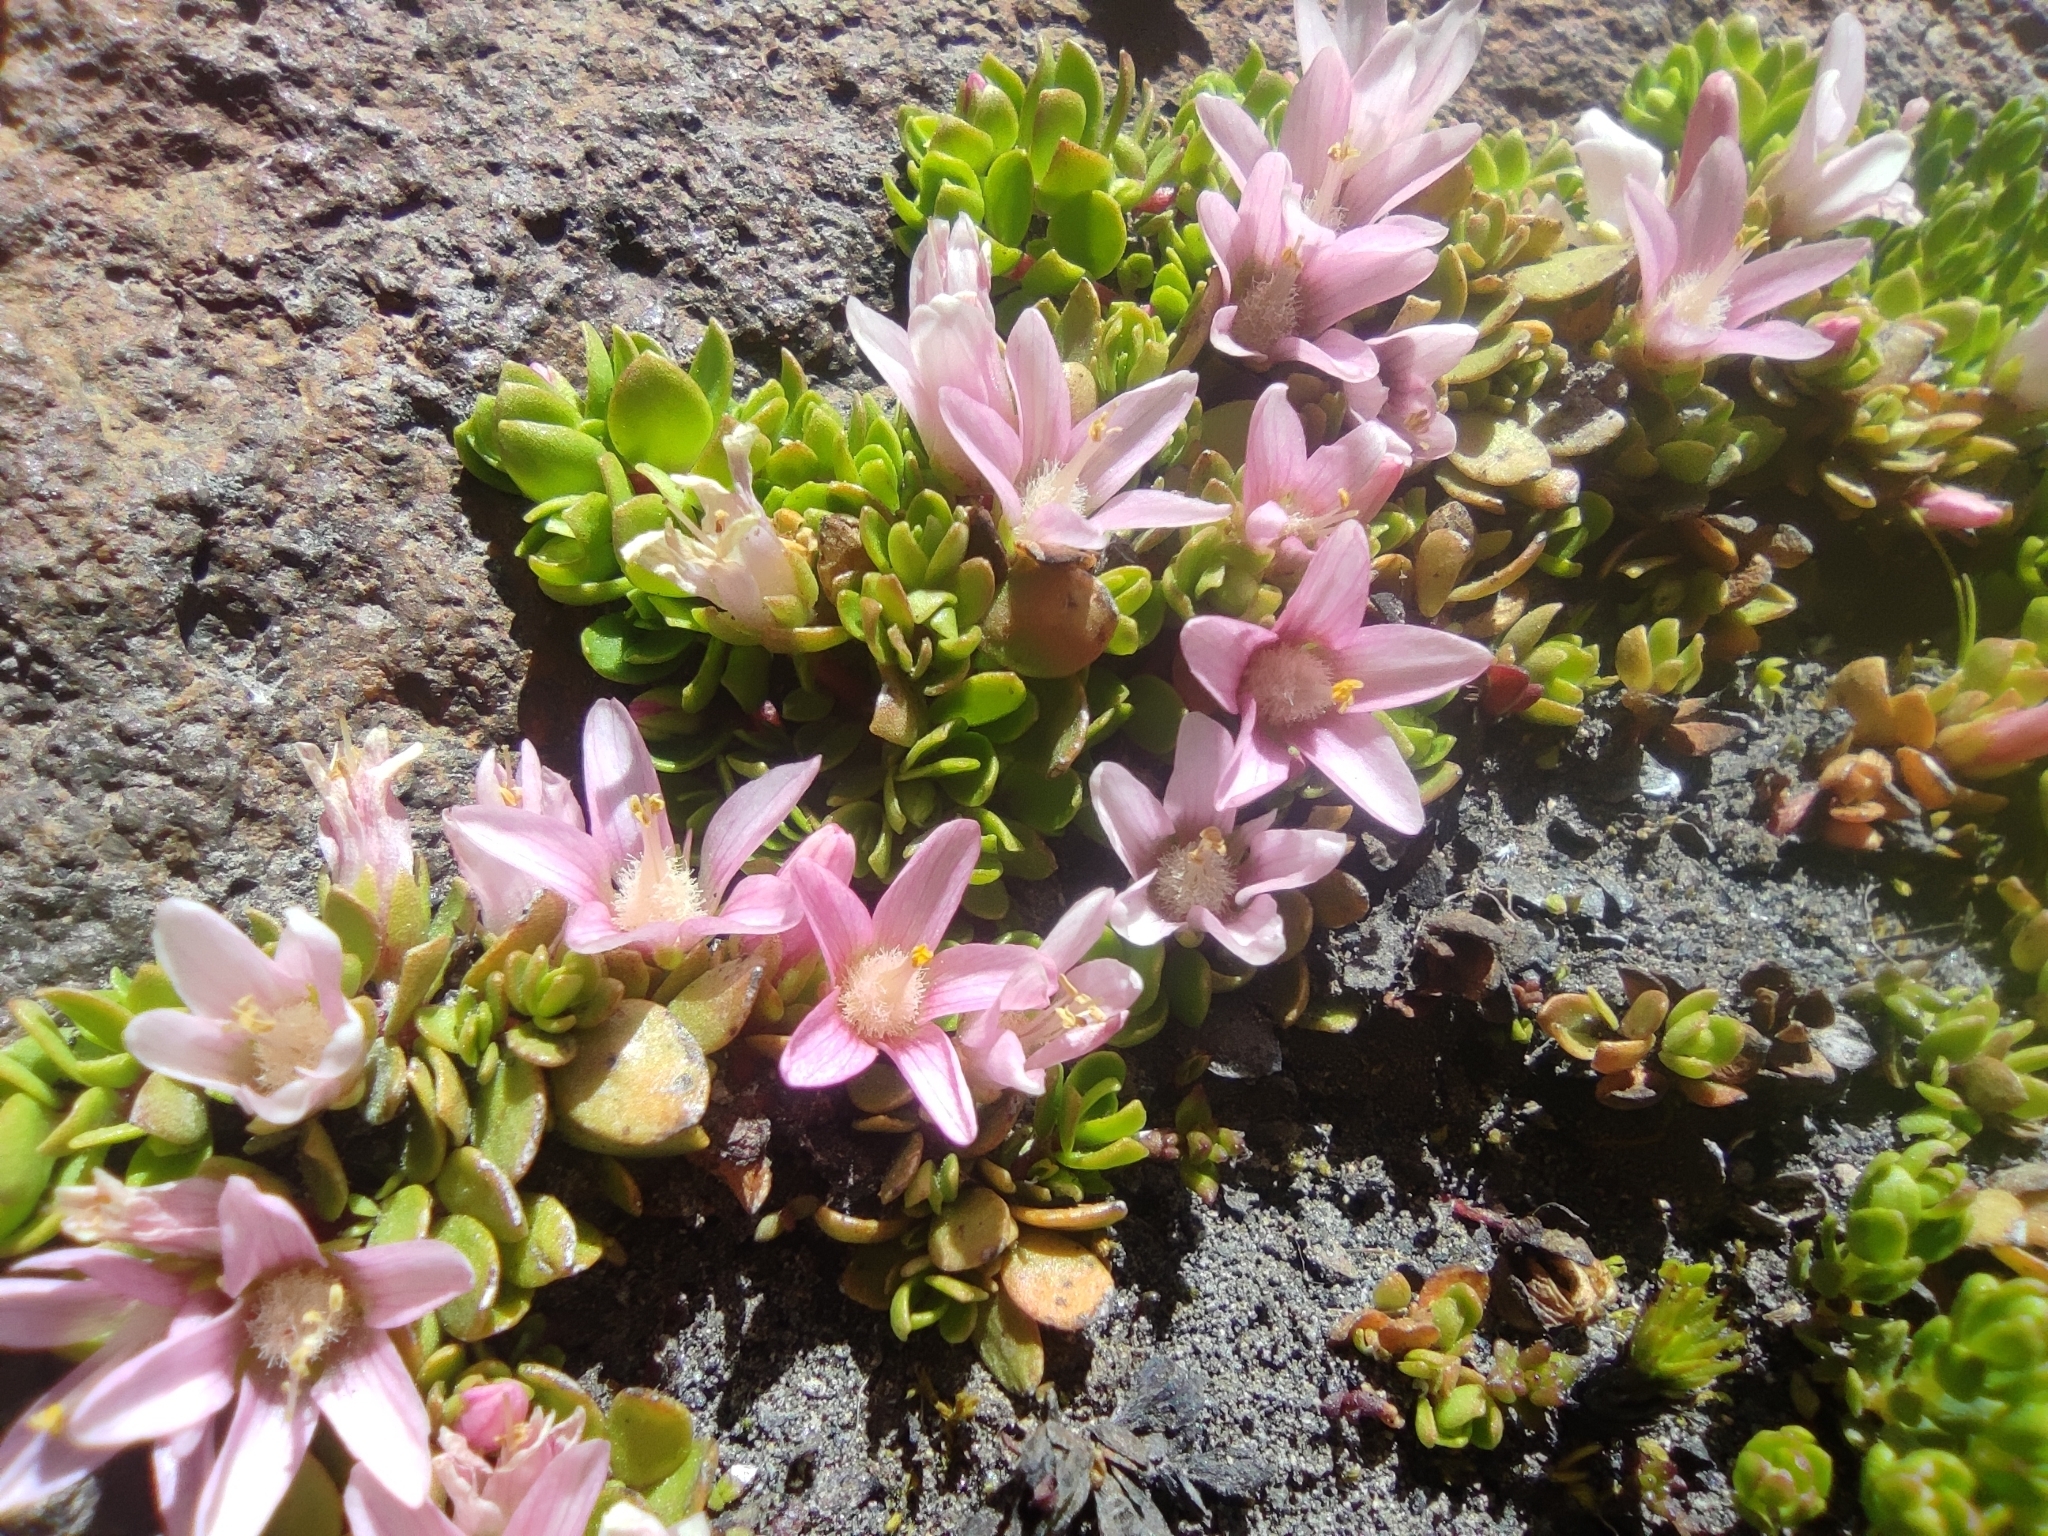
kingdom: Plantae
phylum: Tracheophyta
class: Magnoliopsida
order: Ericales
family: Primulaceae
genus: Lysimachia
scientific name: Lysimachia amoena
